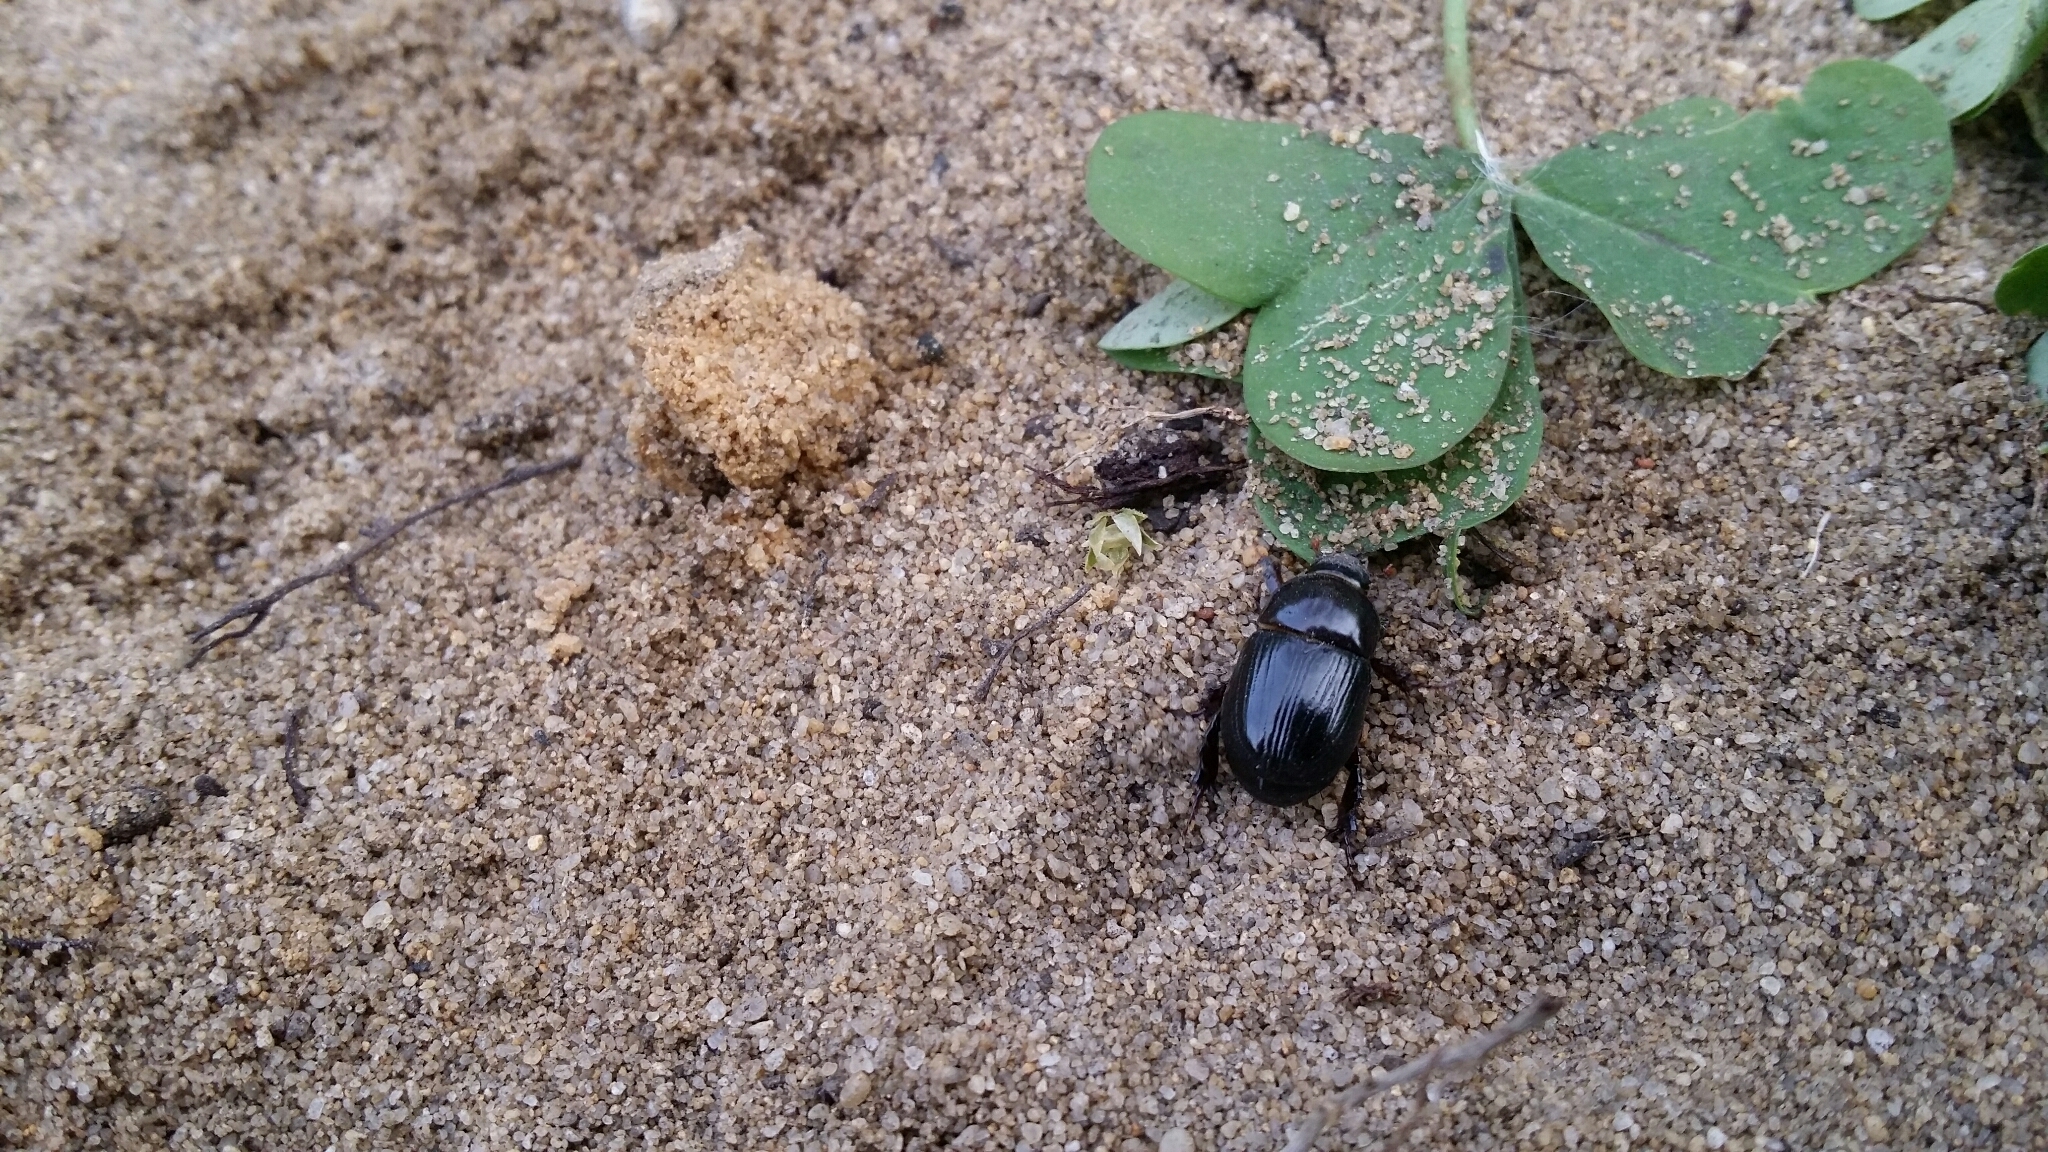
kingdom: Animalia
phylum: Arthropoda
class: Insecta
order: Coleoptera
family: Scarabaeidae
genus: Heteronychus
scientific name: Heteronychus arator
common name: African black beetle
